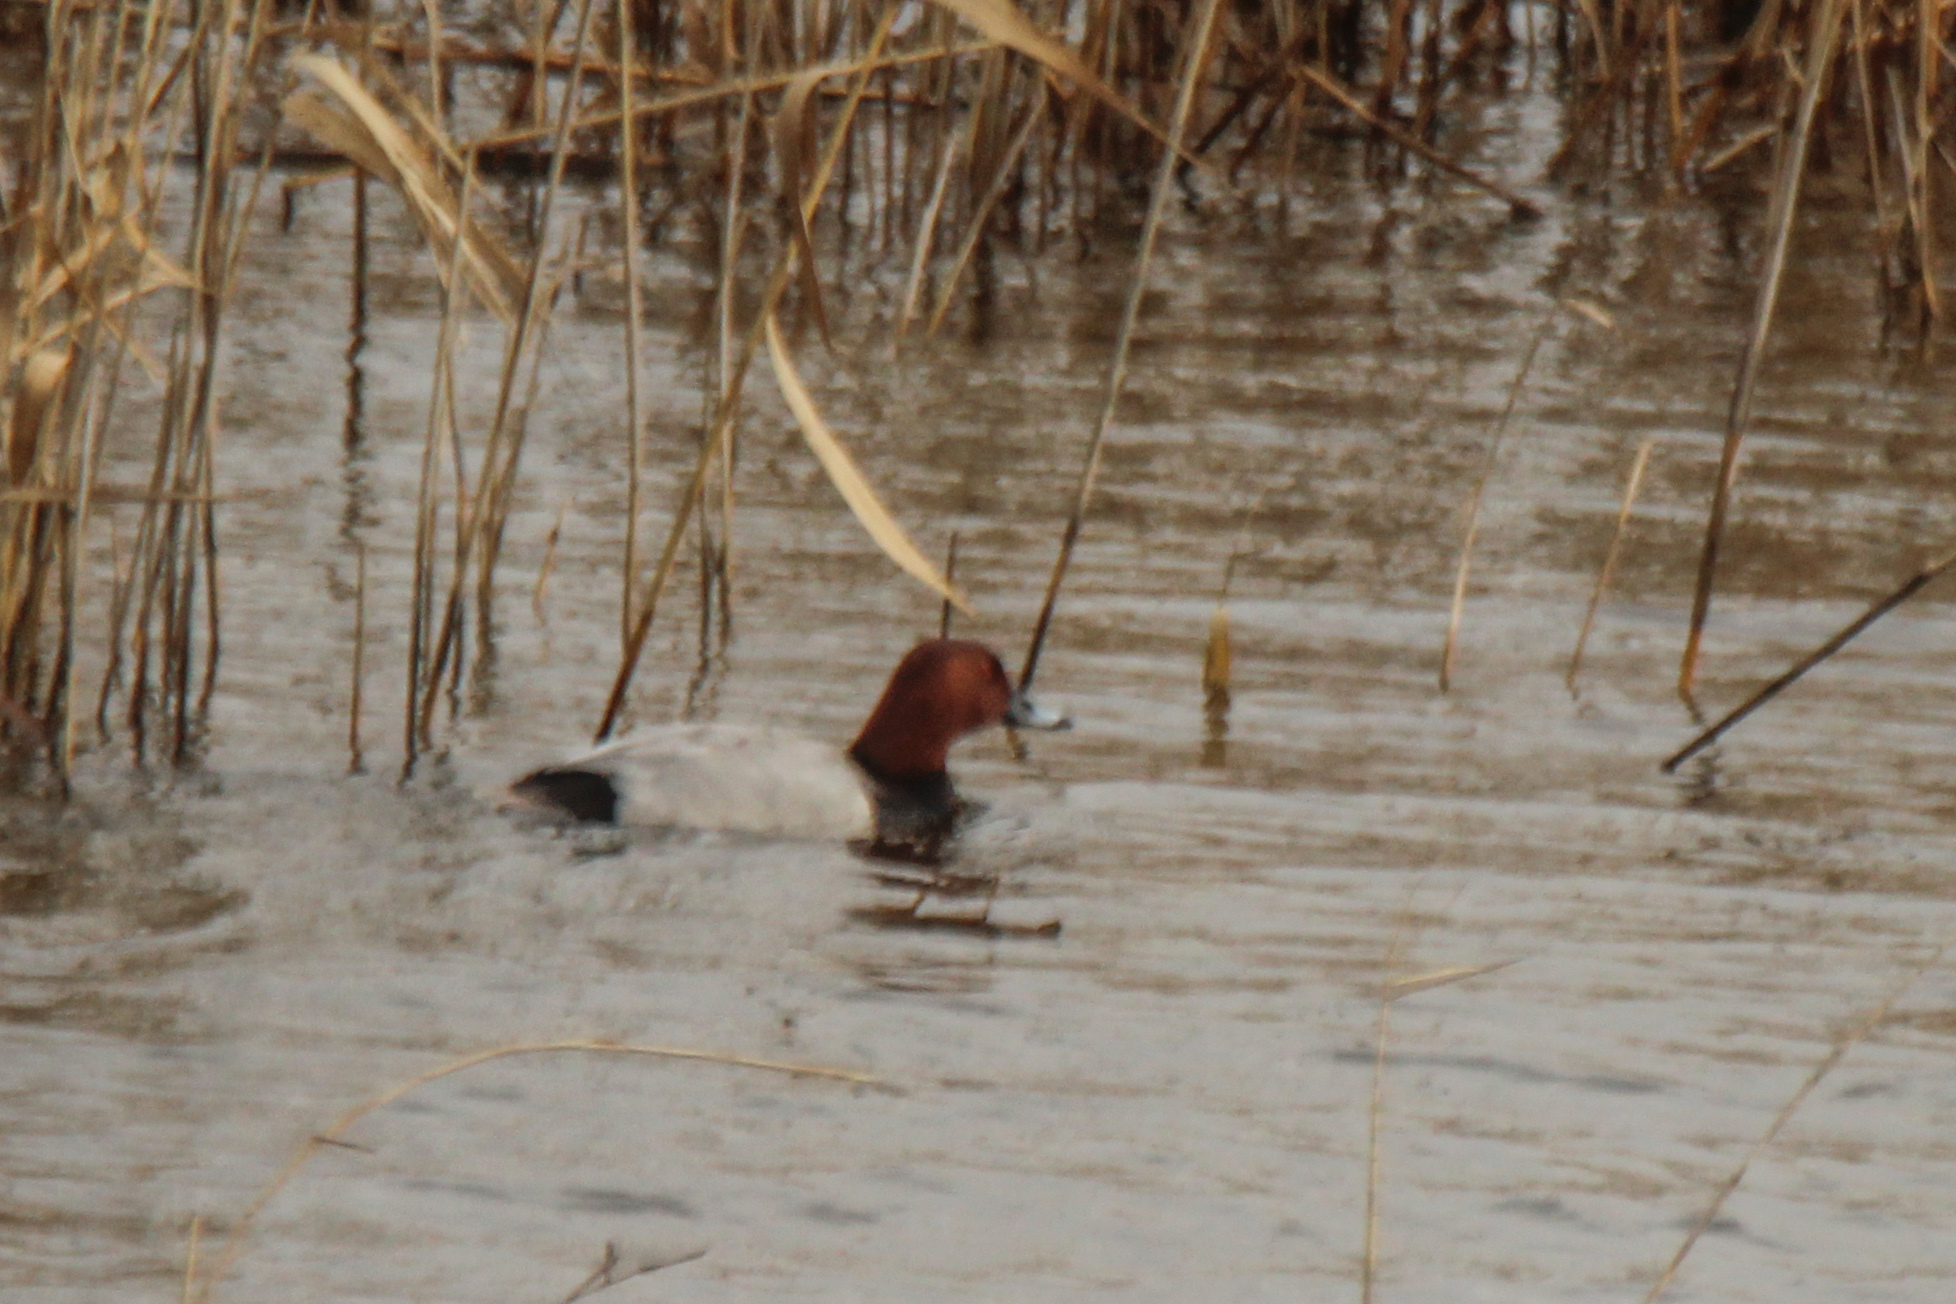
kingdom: Animalia
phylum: Chordata
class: Aves
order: Anseriformes
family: Anatidae
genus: Aythya
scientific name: Aythya ferina
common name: Common pochard
